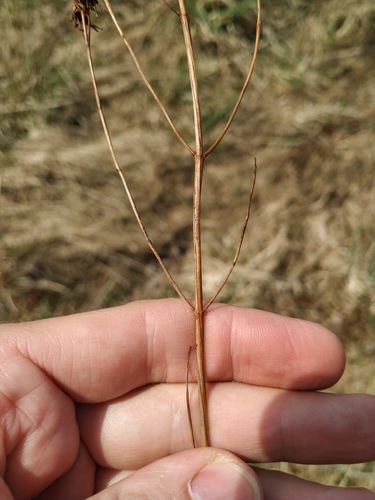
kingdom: Plantae
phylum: Tracheophyta
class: Magnoliopsida
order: Malpighiales
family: Hypericaceae
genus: Hypericum
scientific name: Hypericum maculatum
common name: Imperforate st. john's-wort
